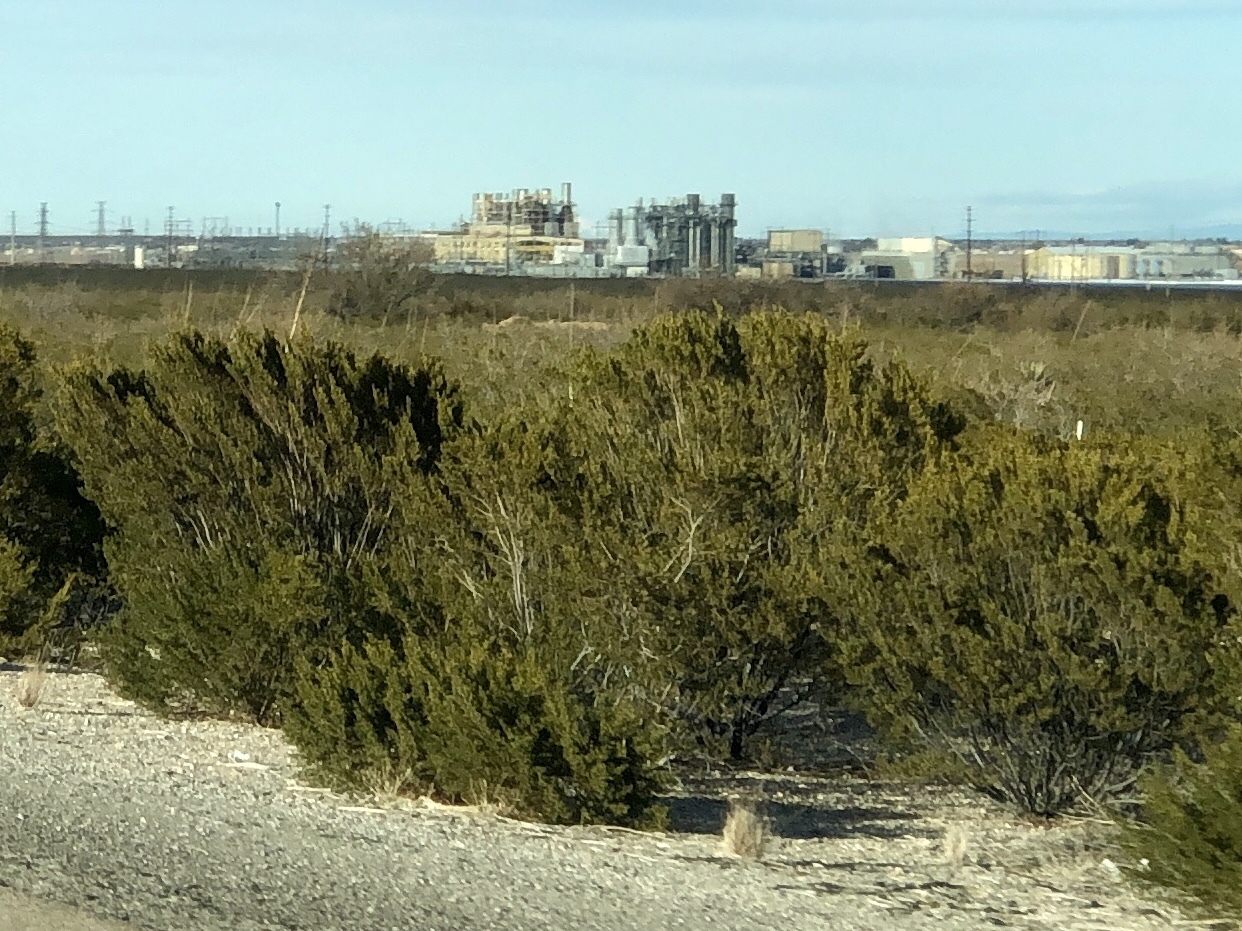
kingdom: Plantae
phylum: Tracheophyta
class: Magnoliopsida
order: Zygophyllales
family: Zygophyllaceae
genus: Larrea
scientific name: Larrea tridentata
